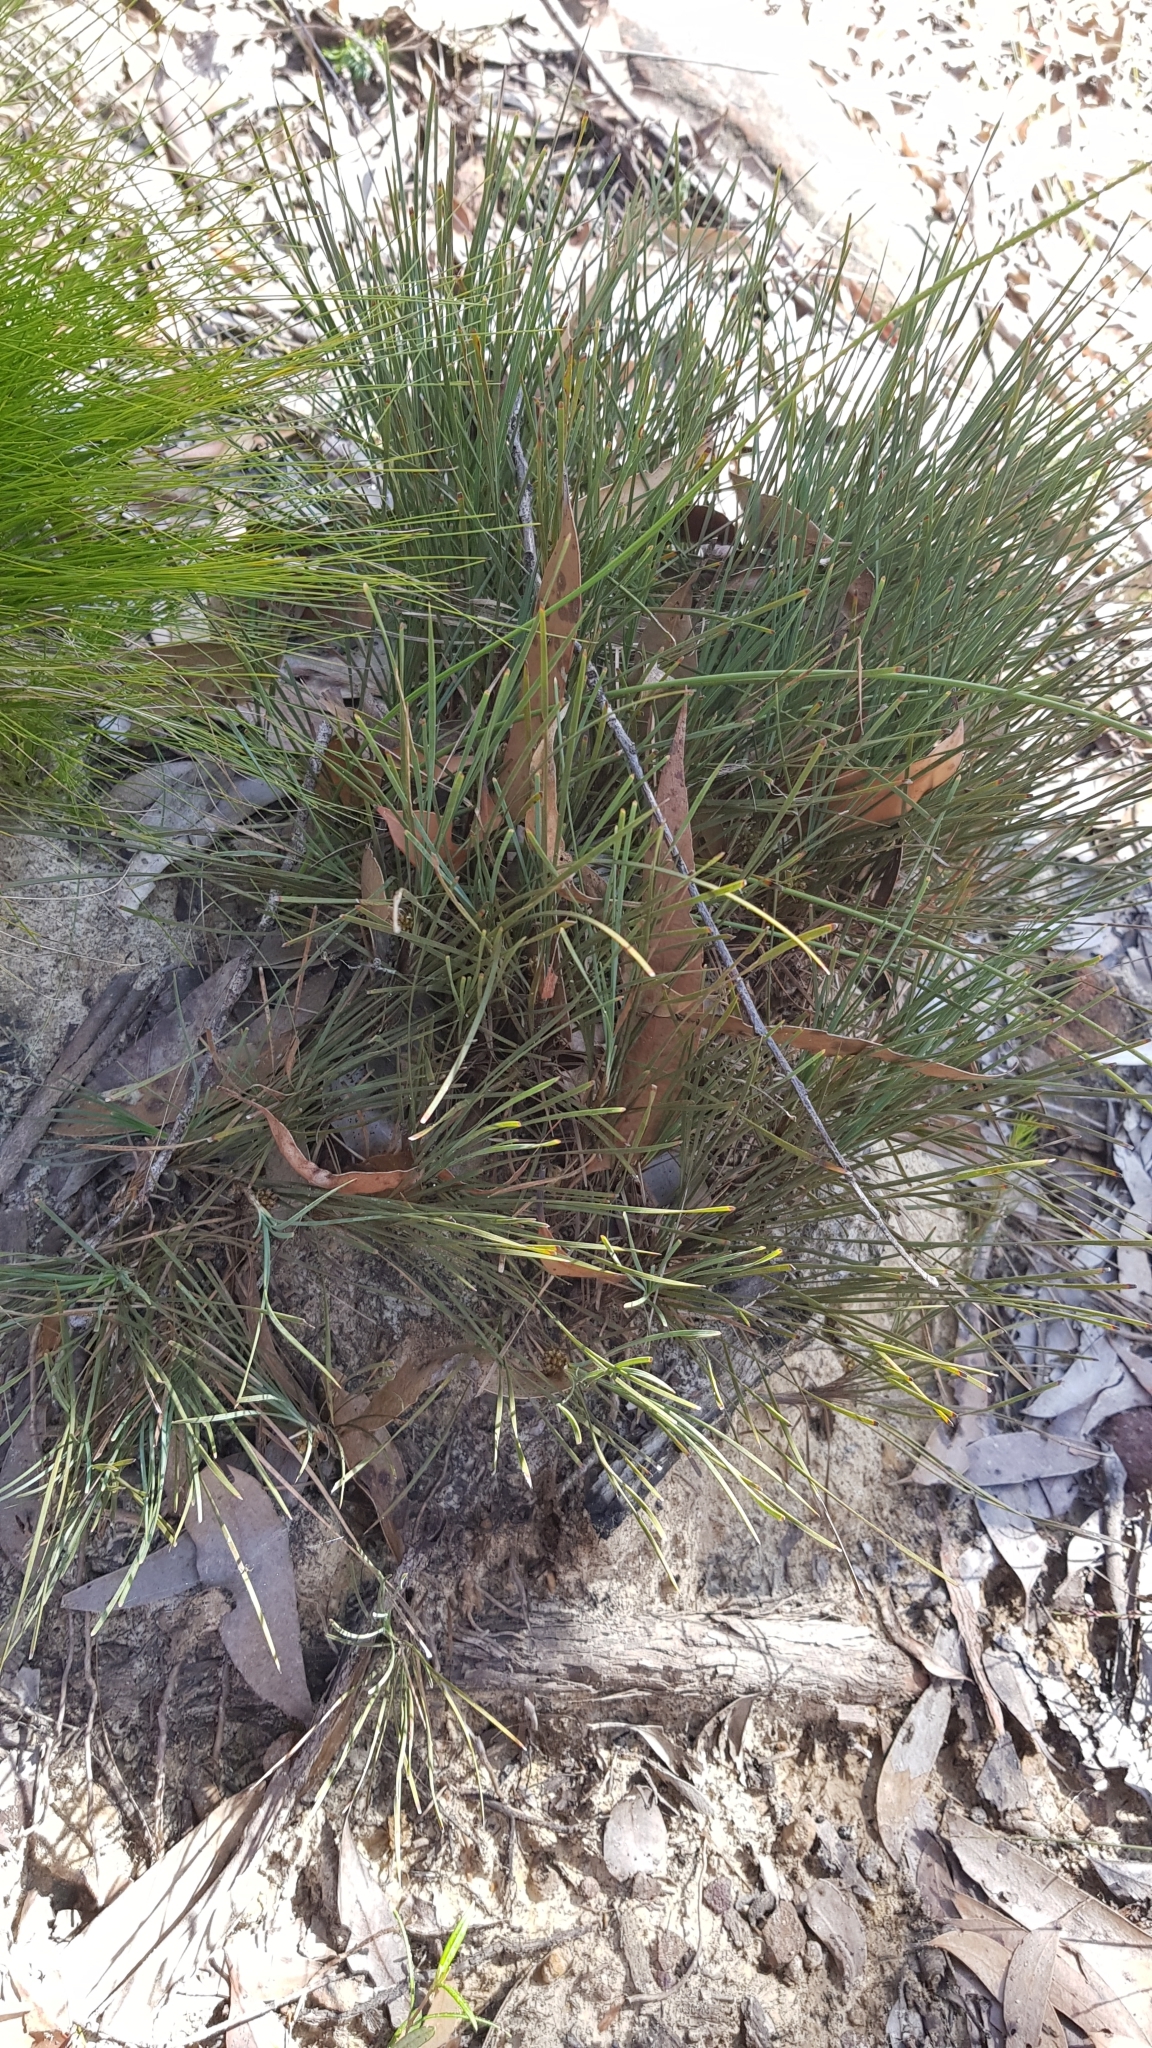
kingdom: Plantae
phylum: Tracheophyta
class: Liliopsida
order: Asparagales
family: Asparagaceae
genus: Lomandra
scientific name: Lomandra glauca
